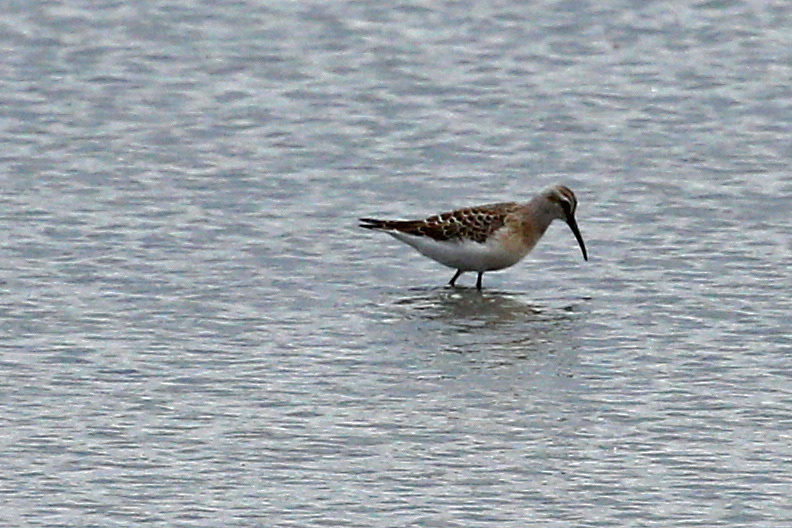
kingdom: Animalia
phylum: Chordata
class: Aves
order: Charadriiformes
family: Scolopacidae
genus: Calidris
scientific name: Calidris ferruginea
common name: Curlew sandpiper
